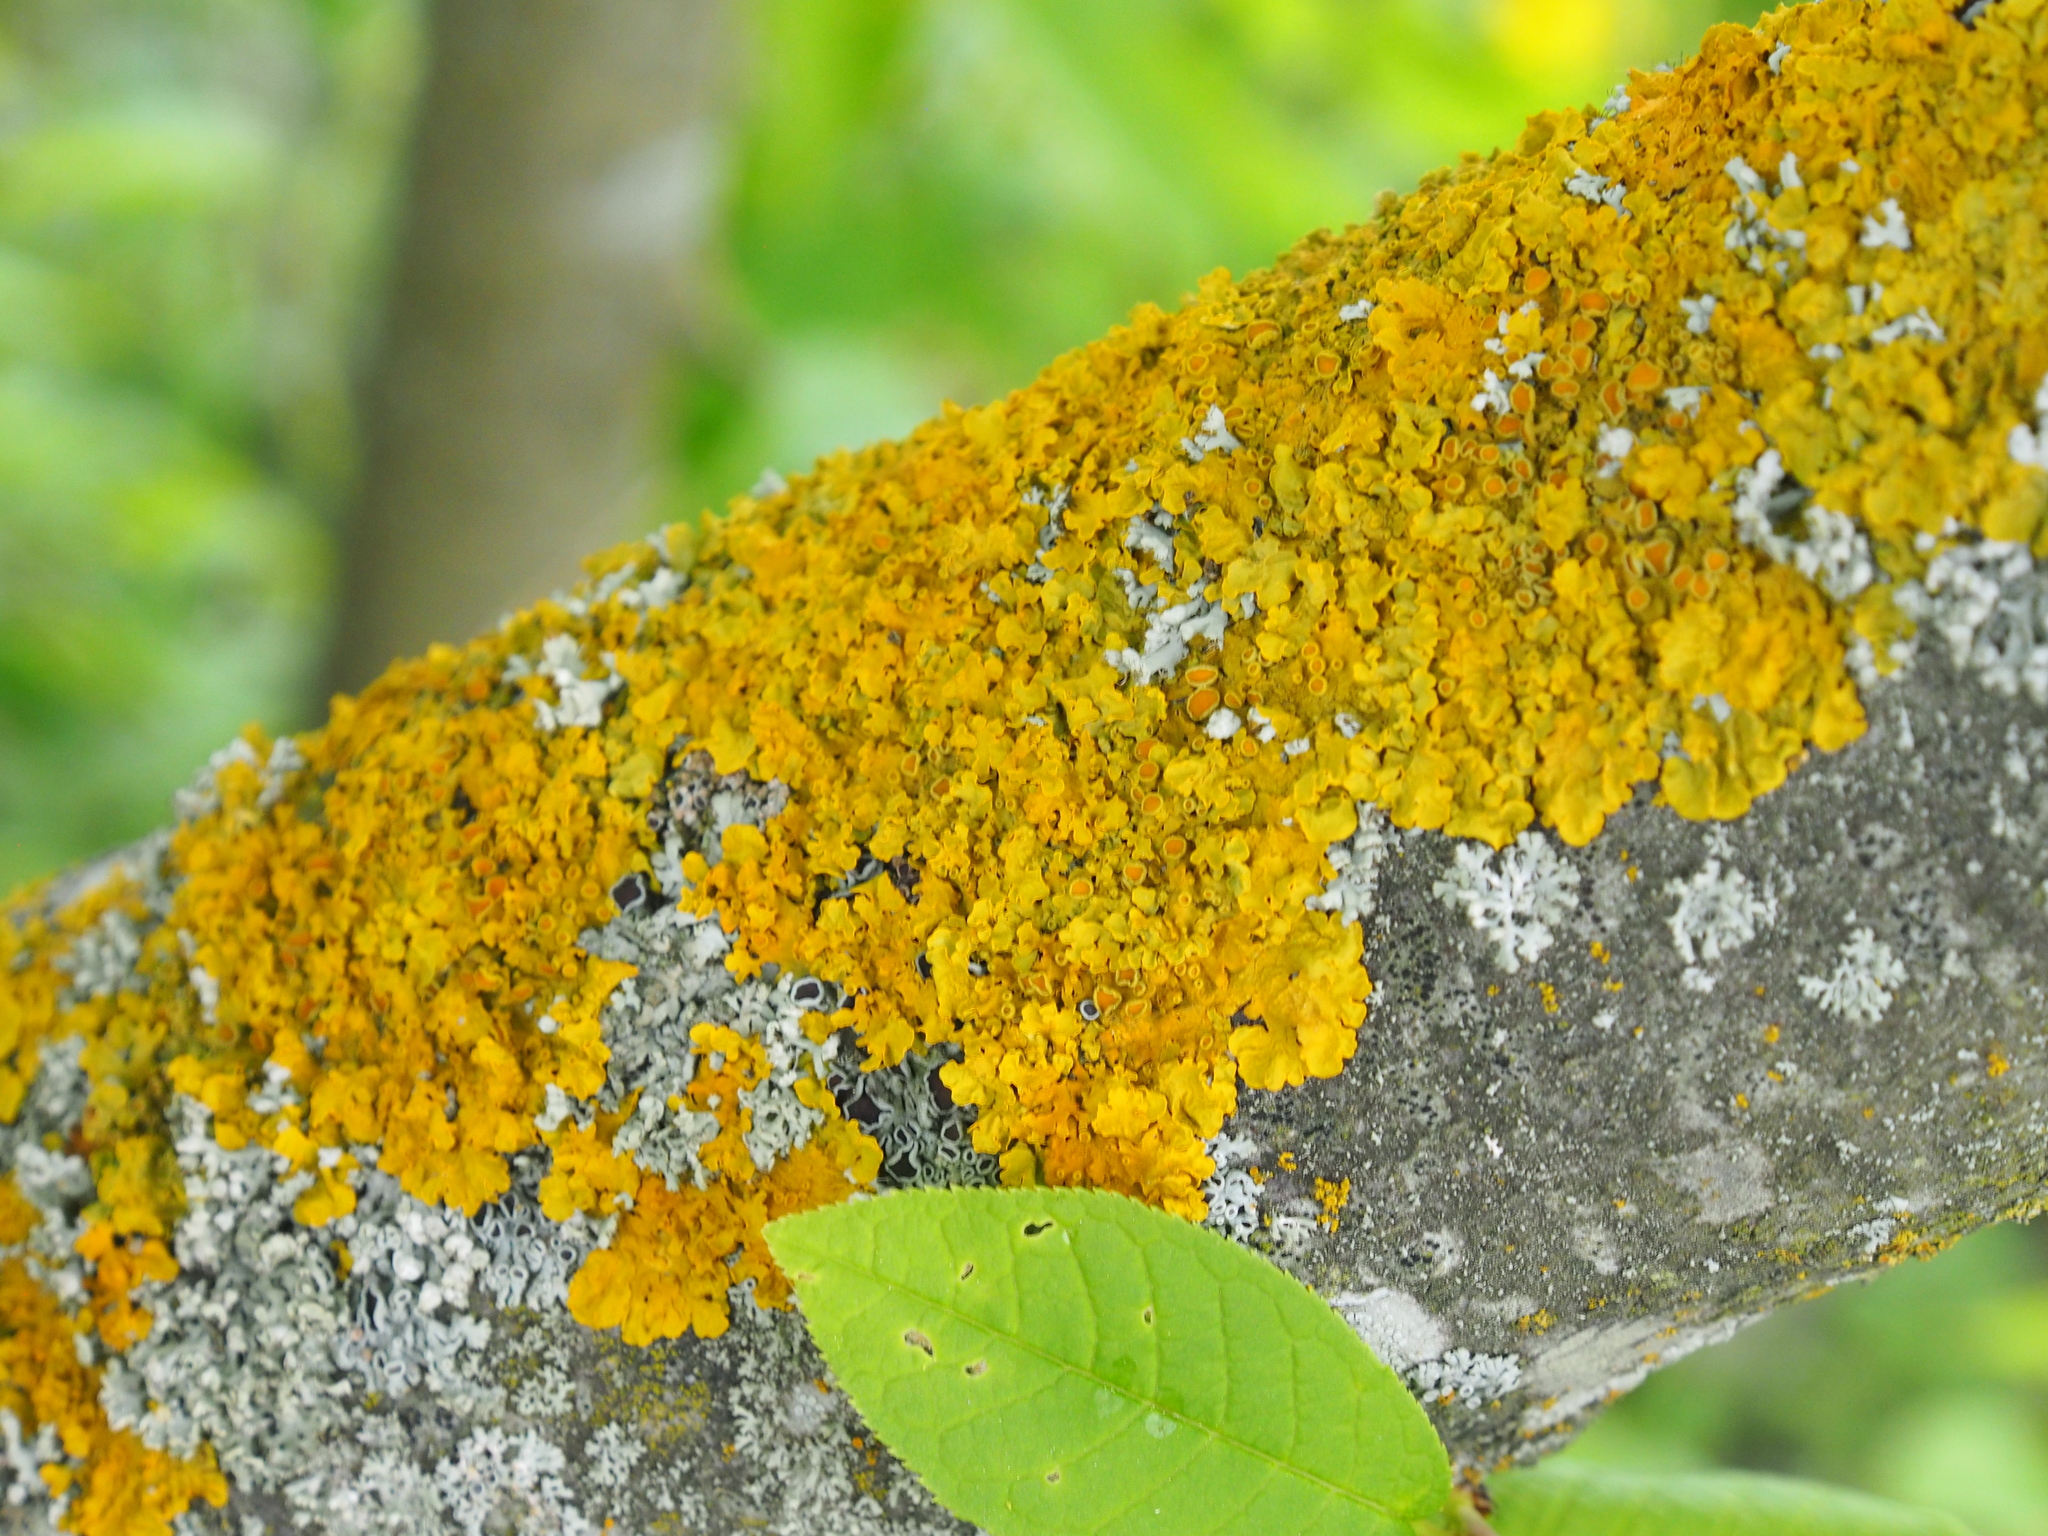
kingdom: Fungi
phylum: Ascomycota
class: Lecanoromycetes
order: Teloschistales
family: Teloschistaceae
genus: Xanthoria
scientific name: Xanthoria parietina
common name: Common orange lichen
